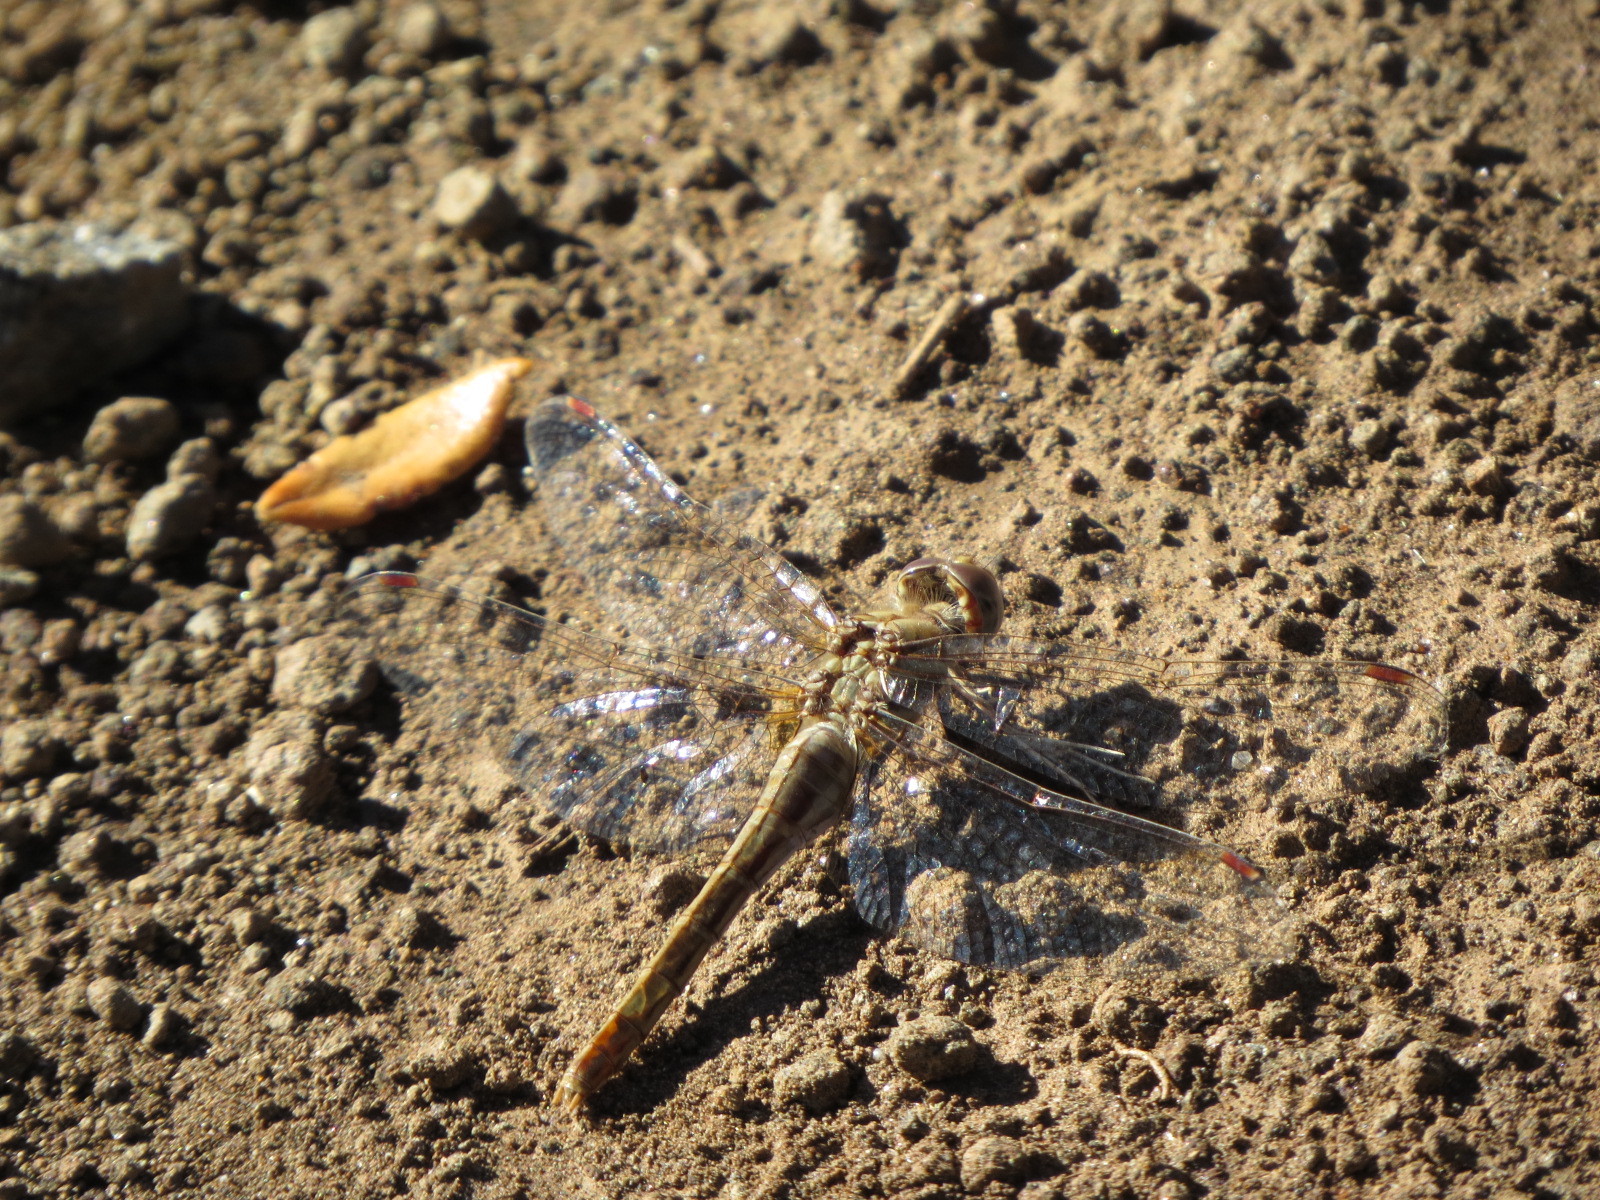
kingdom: Animalia
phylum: Arthropoda
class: Insecta
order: Odonata
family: Libellulidae
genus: Sympetrum
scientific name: Sympetrum pallipes
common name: Striped meadowhawk
